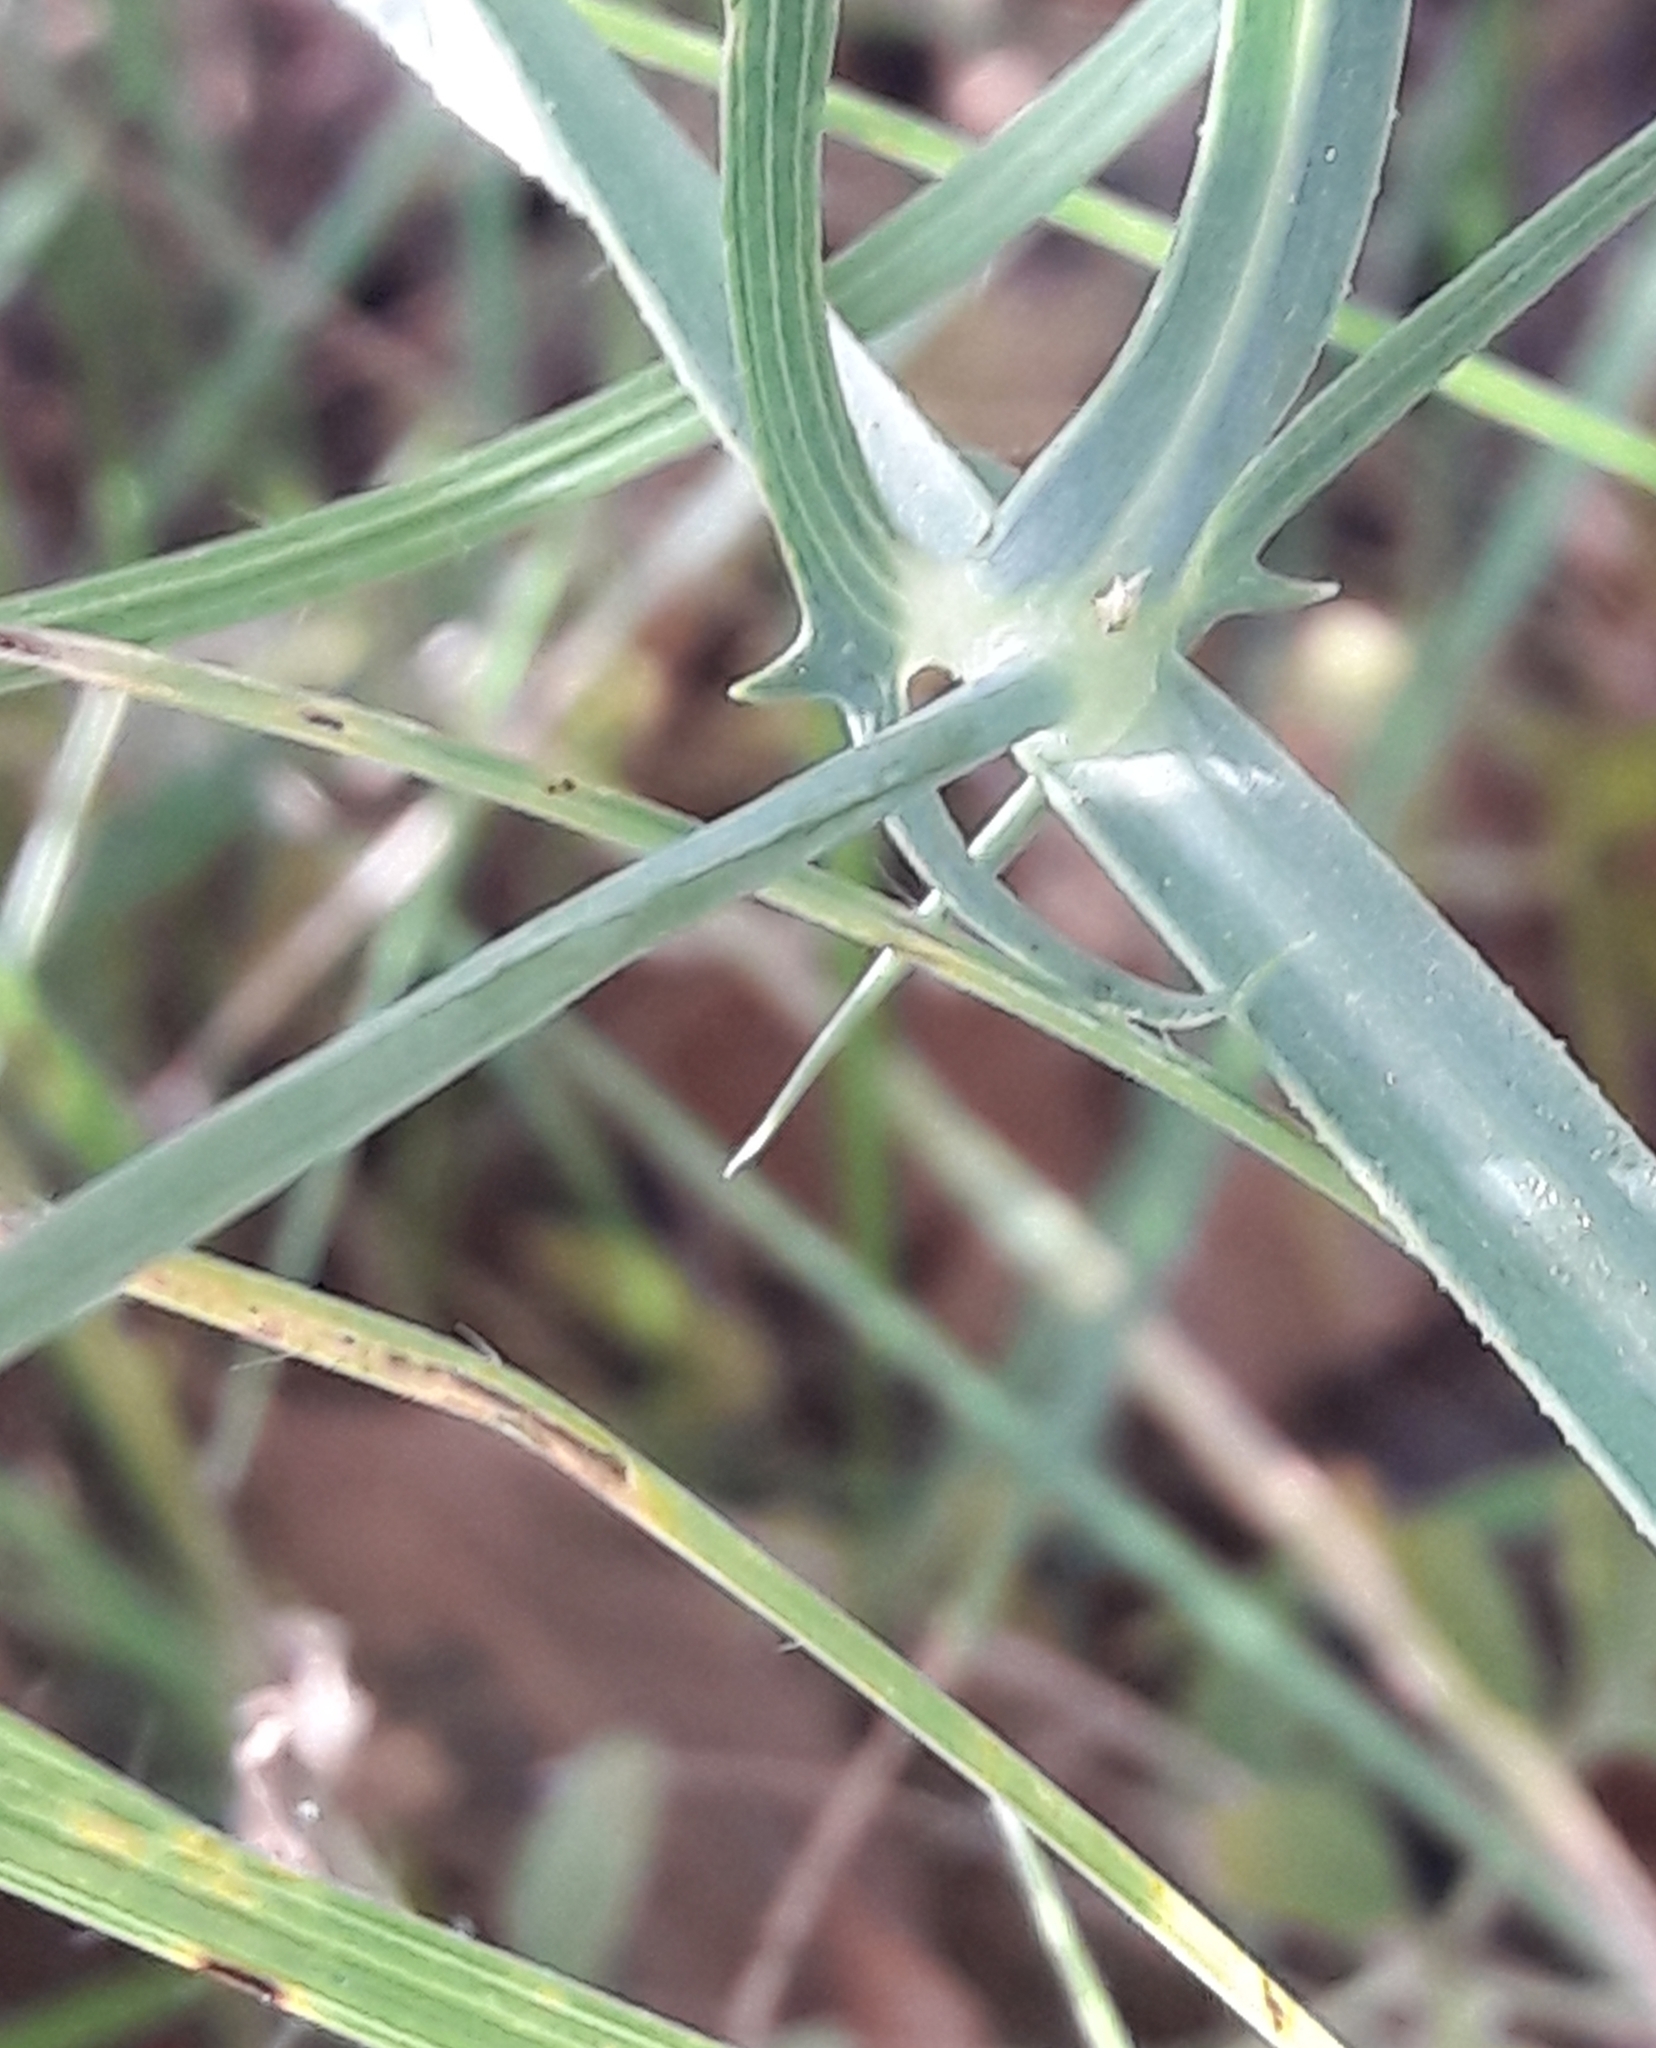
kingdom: Plantae
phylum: Tracheophyta
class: Magnoliopsida
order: Fabales
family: Fabaceae
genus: Lathyrus
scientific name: Lathyrus latifolius
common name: Perennial pea
